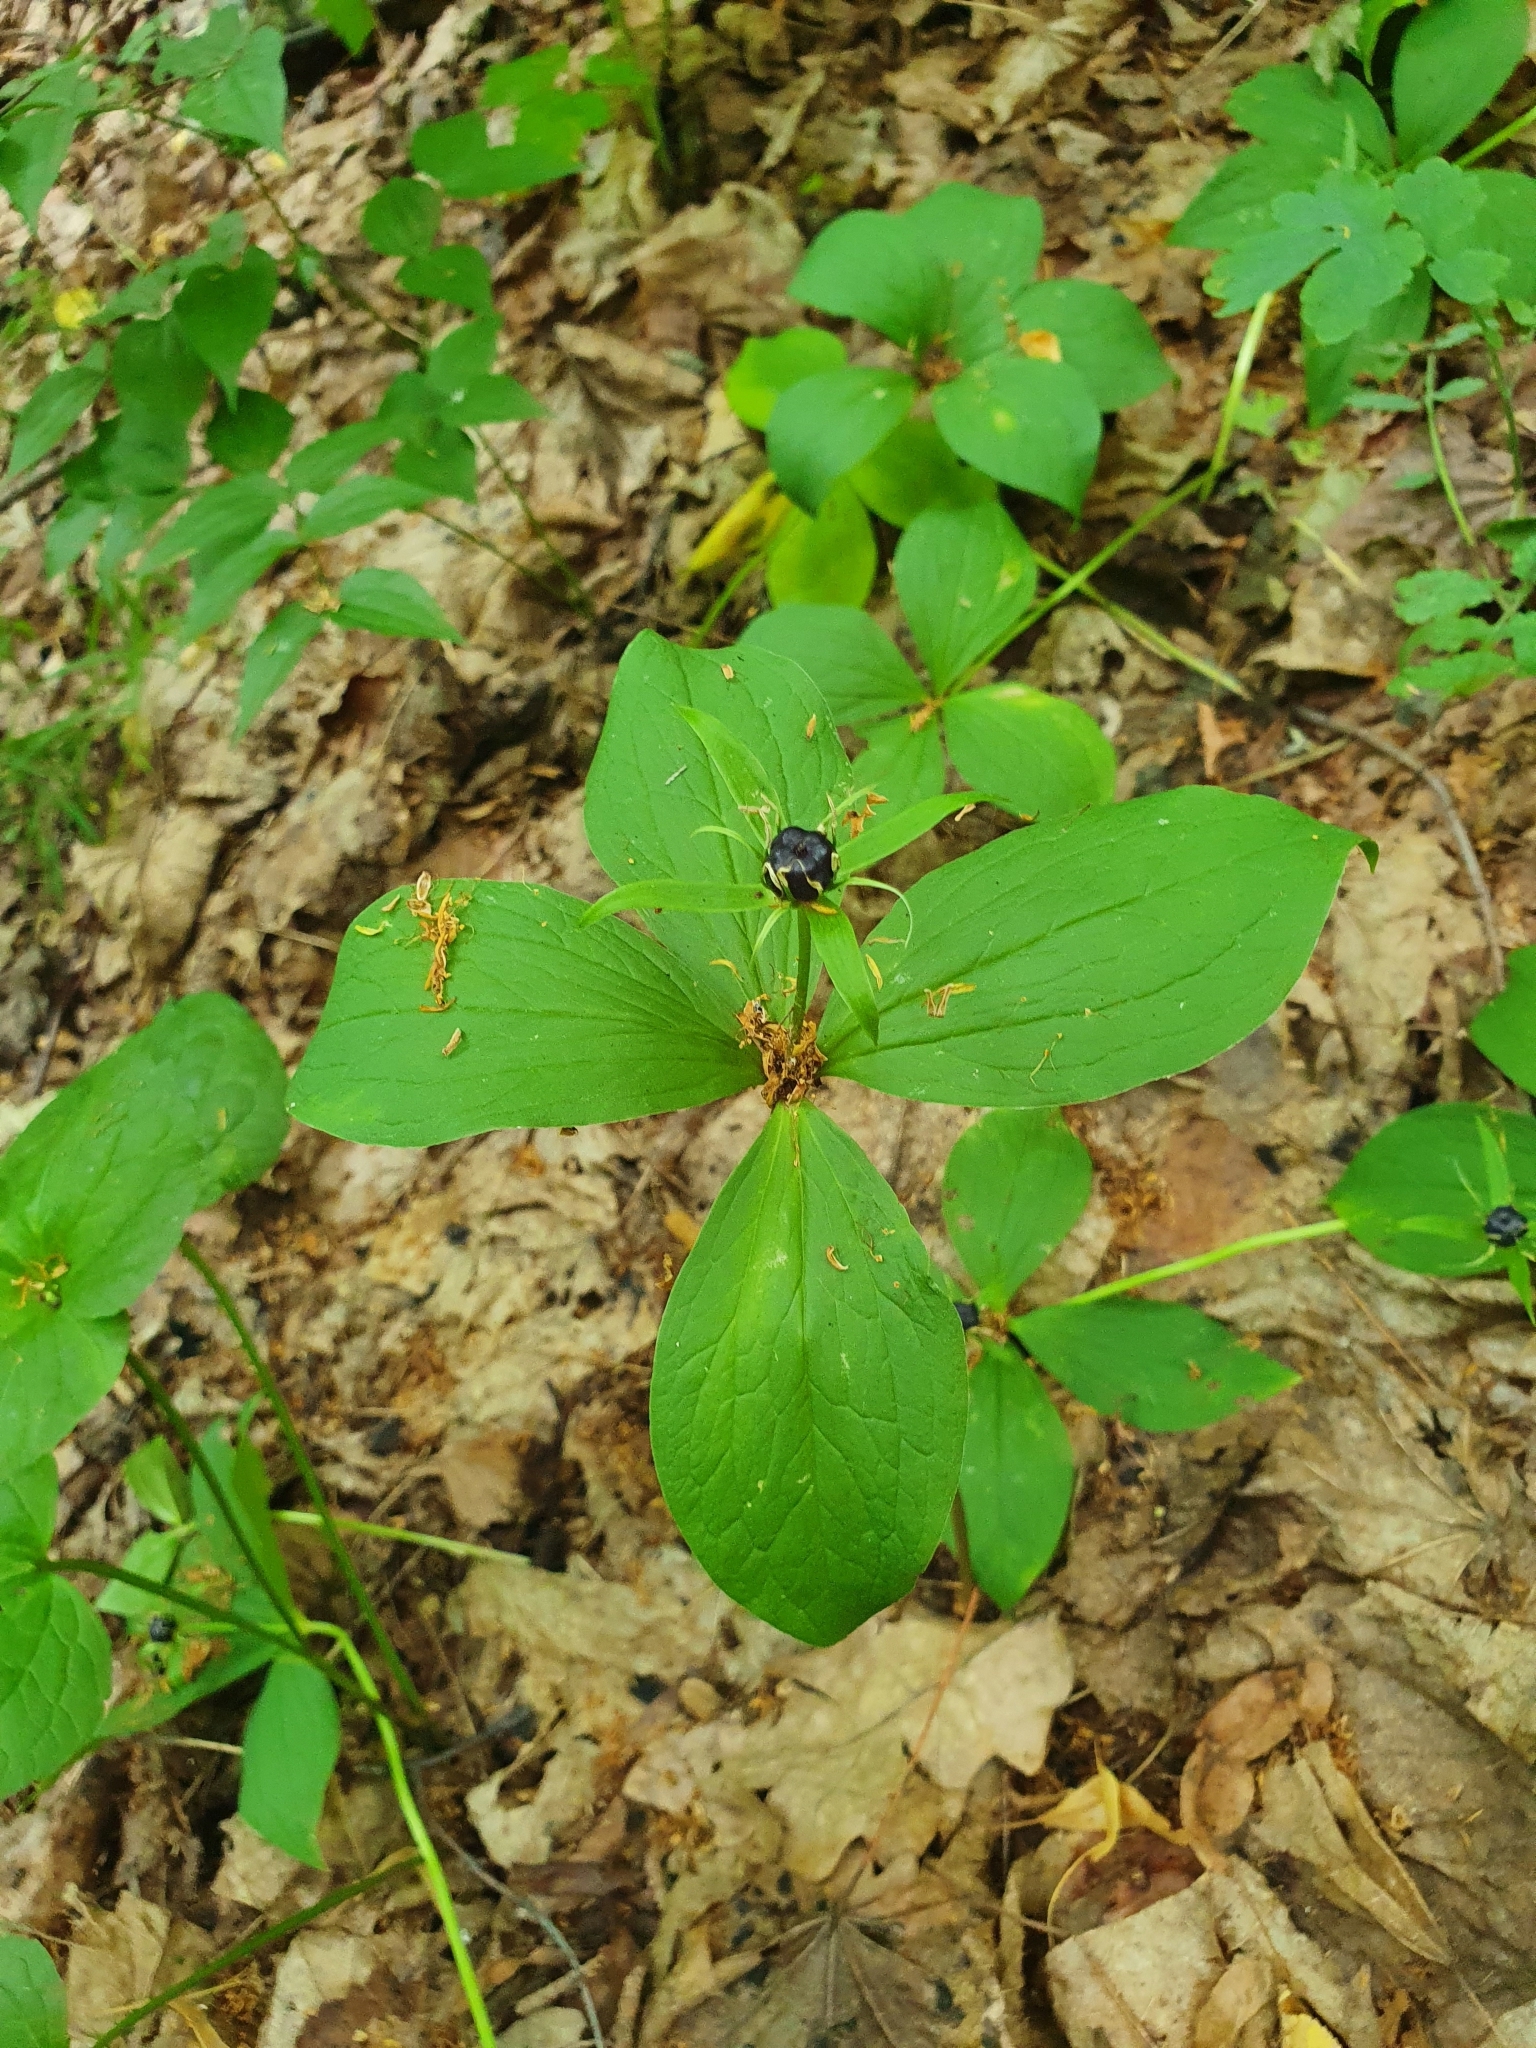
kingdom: Plantae
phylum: Tracheophyta
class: Liliopsida
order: Liliales
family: Melanthiaceae
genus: Paris
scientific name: Paris quadrifolia
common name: Herb-paris
